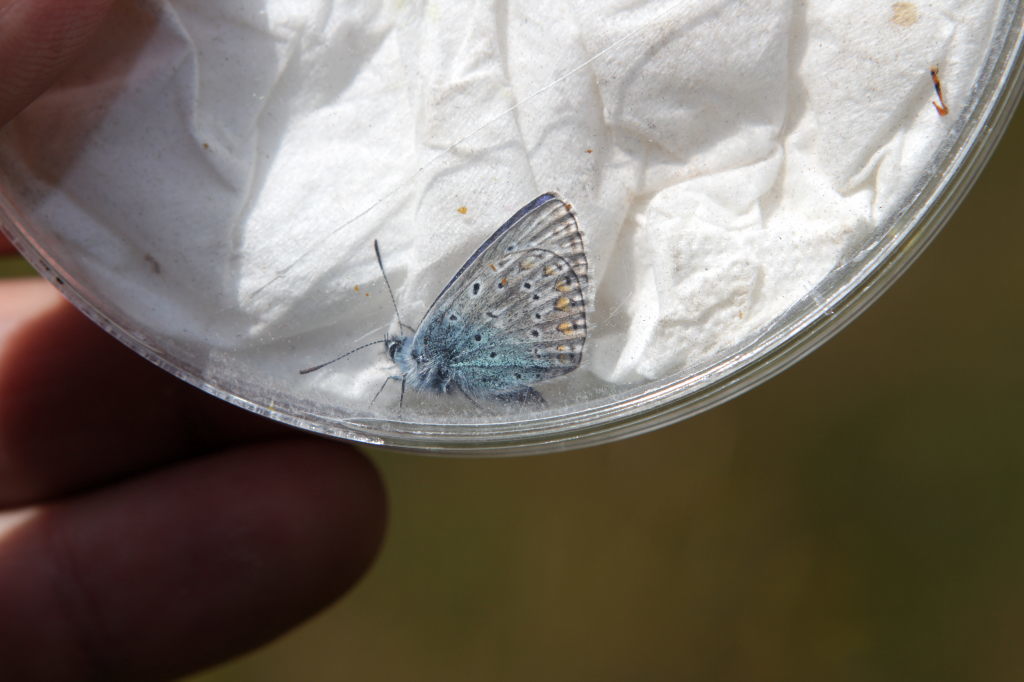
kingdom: Animalia
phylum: Arthropoda
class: Insecta
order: Lepidoptera
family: Lycaenidae
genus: Polyommatus
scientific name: Polyommatus icarus
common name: Common blue
